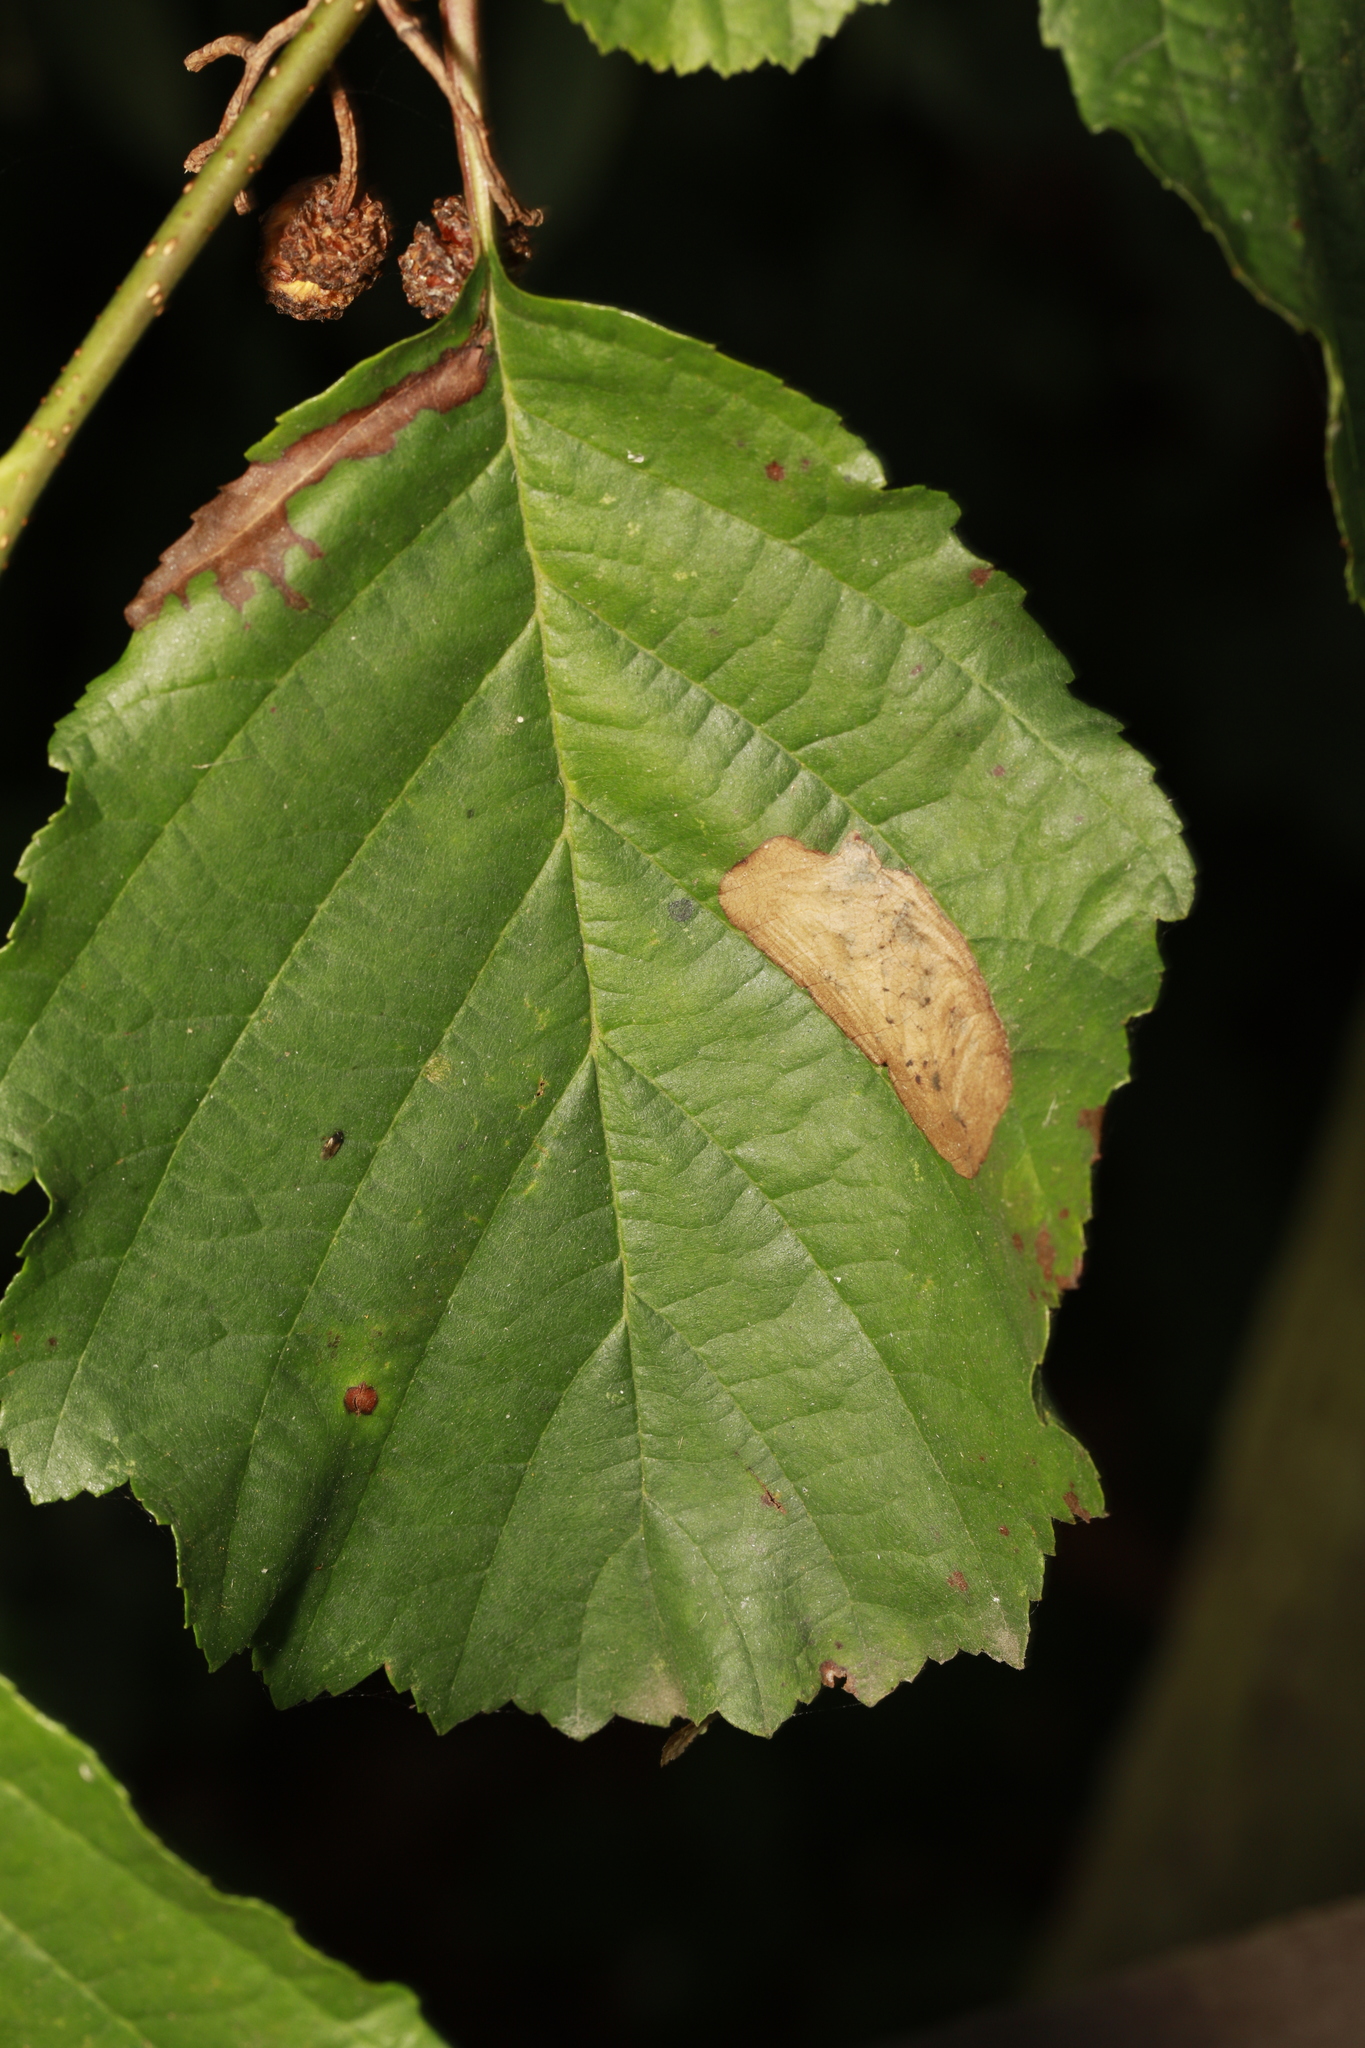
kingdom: Animalia
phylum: Arthropoda
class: Insecta
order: Hymenoptera
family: Tenthredinidae
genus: Fenusa
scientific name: Fenusa dohrnii
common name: European alder leafminer
